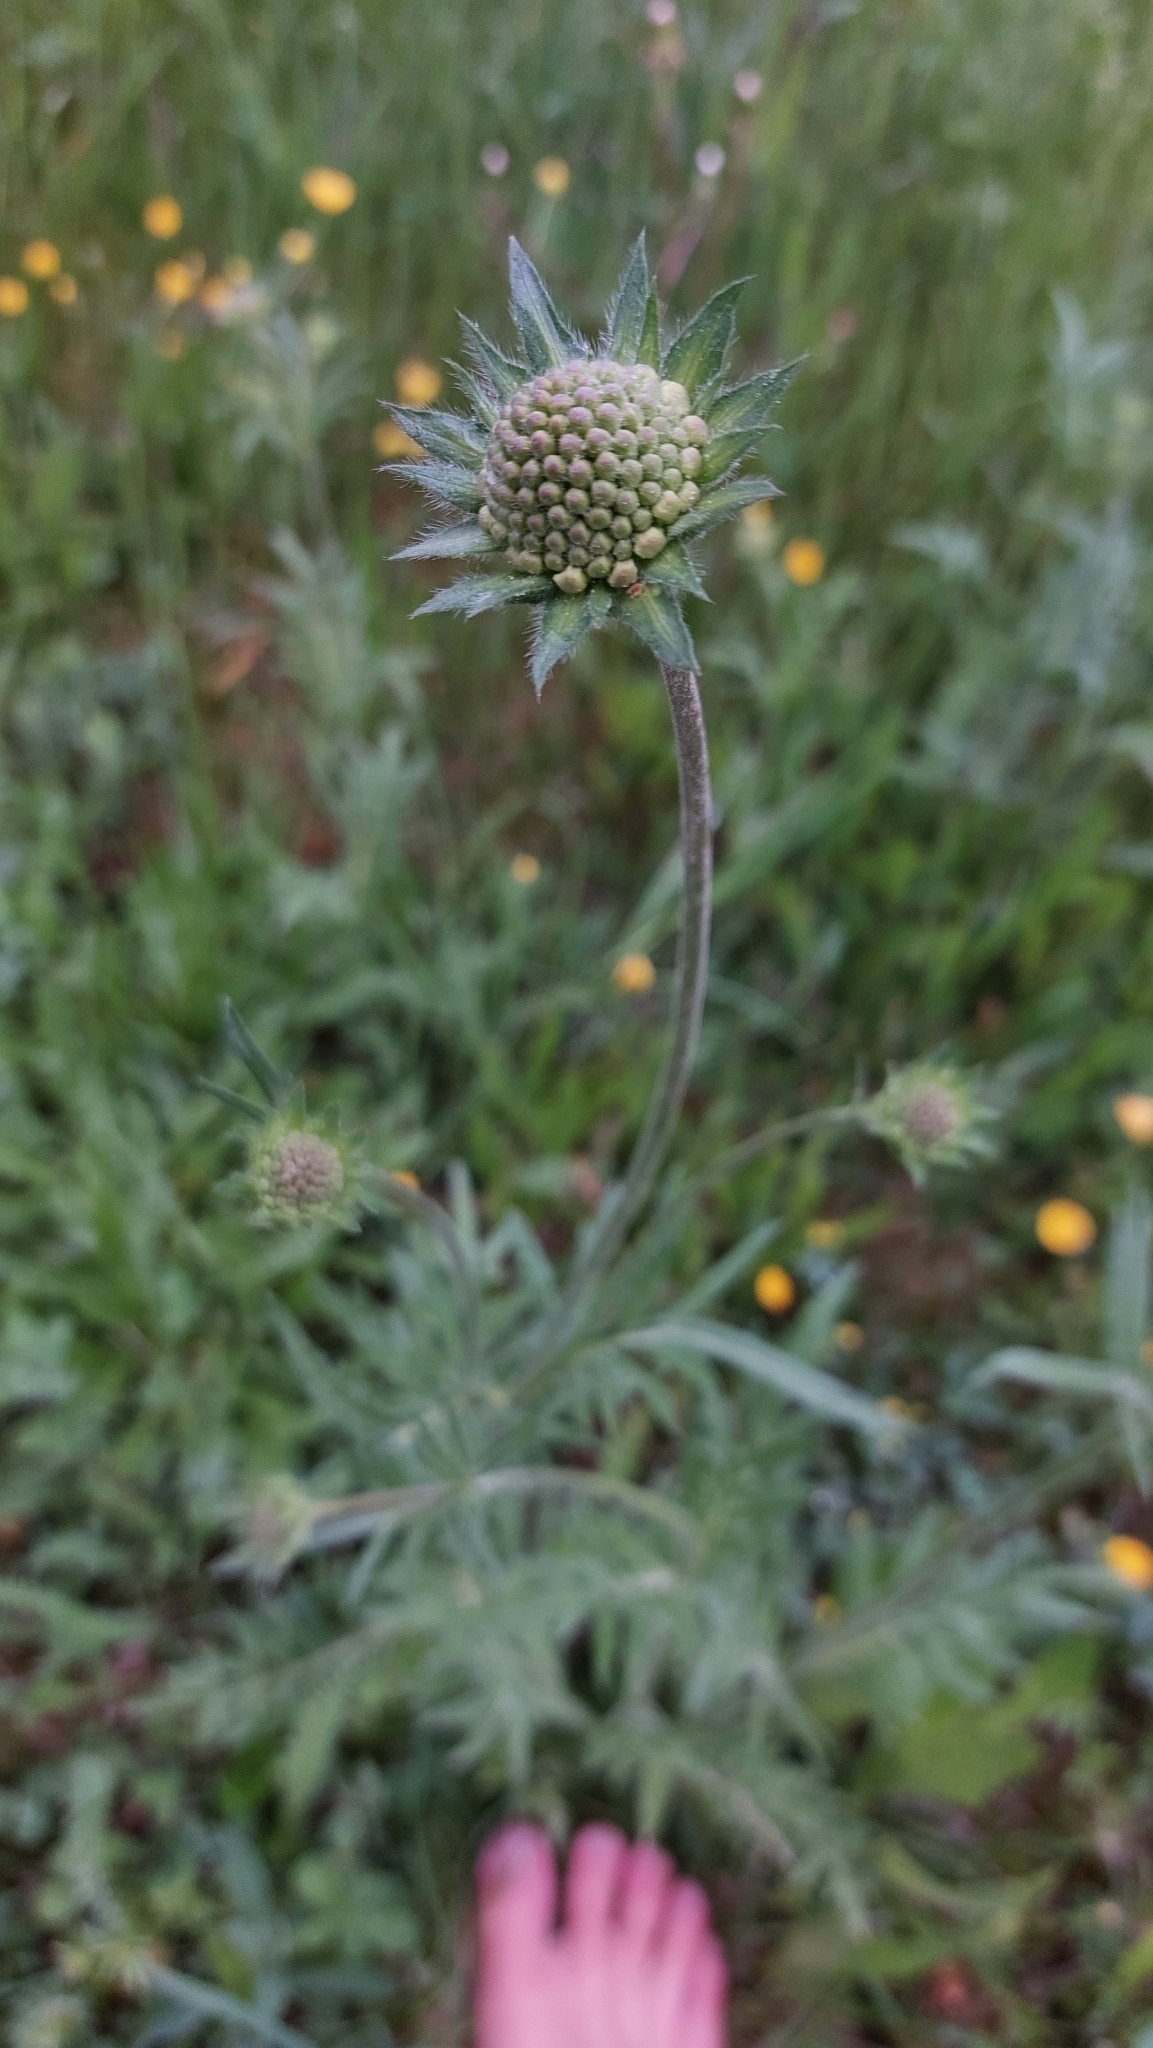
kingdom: Plantae
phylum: Tracheophyta
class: Magnoliopsida
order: Dipsacales
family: Caprifoliaceae
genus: Knautia
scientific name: Knautia arvensis
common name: Field scabiosa
